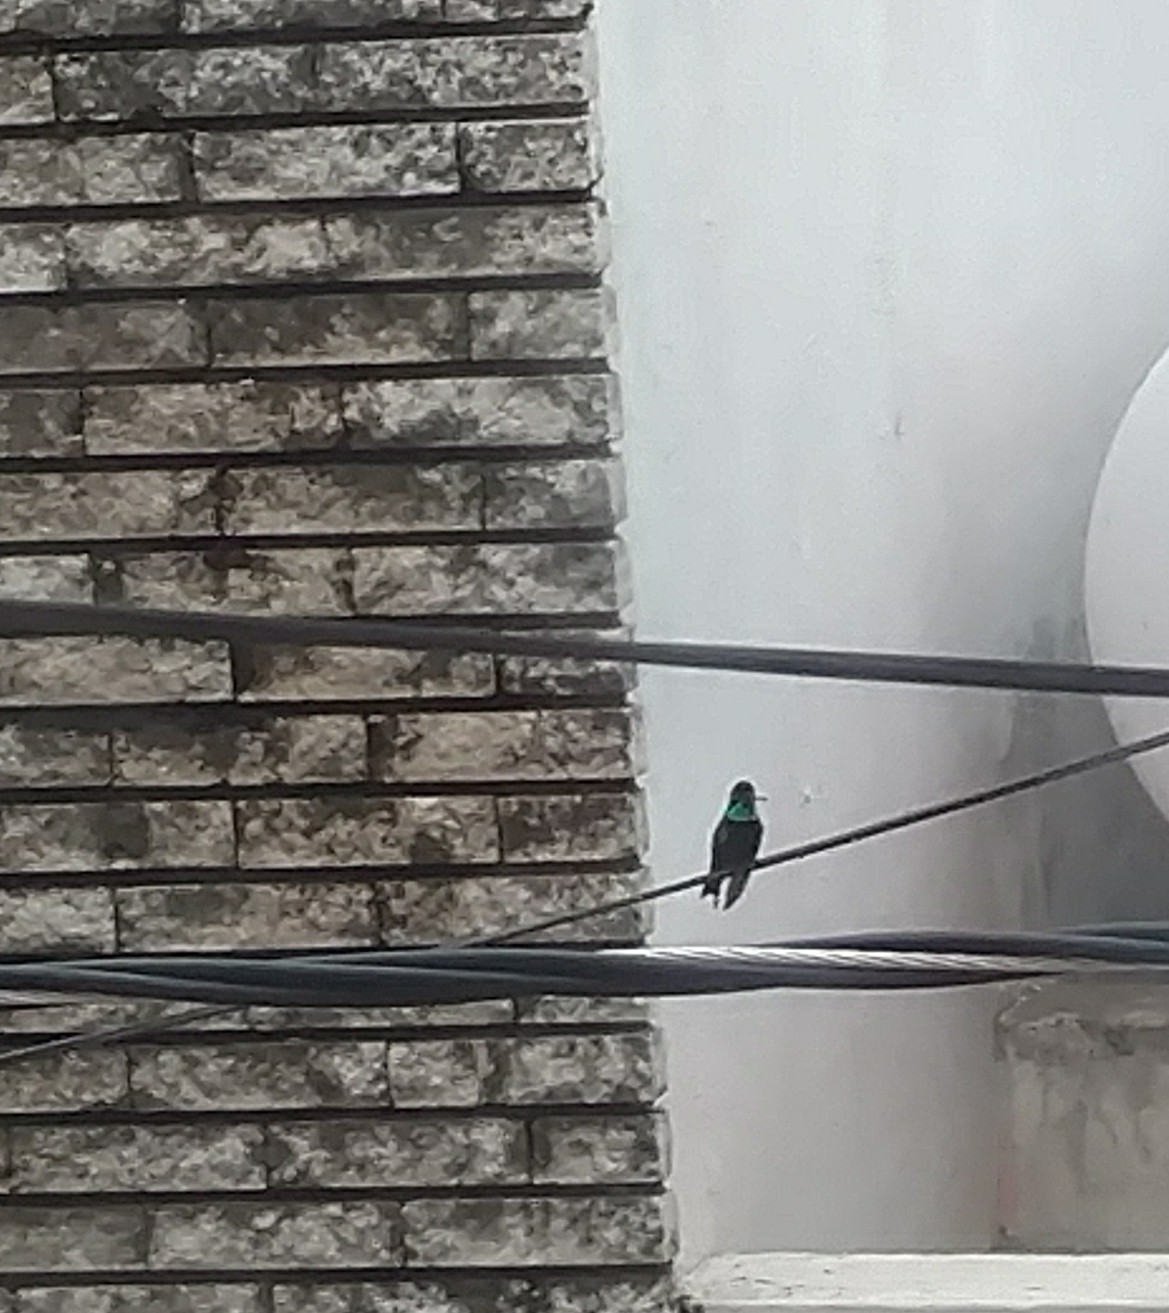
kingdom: Animalia
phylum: Chordata
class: Aves
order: Apodiformes
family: Trochilidae
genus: Eugenes
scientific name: Eugenes fulgens
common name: Magnificent hummingbird
